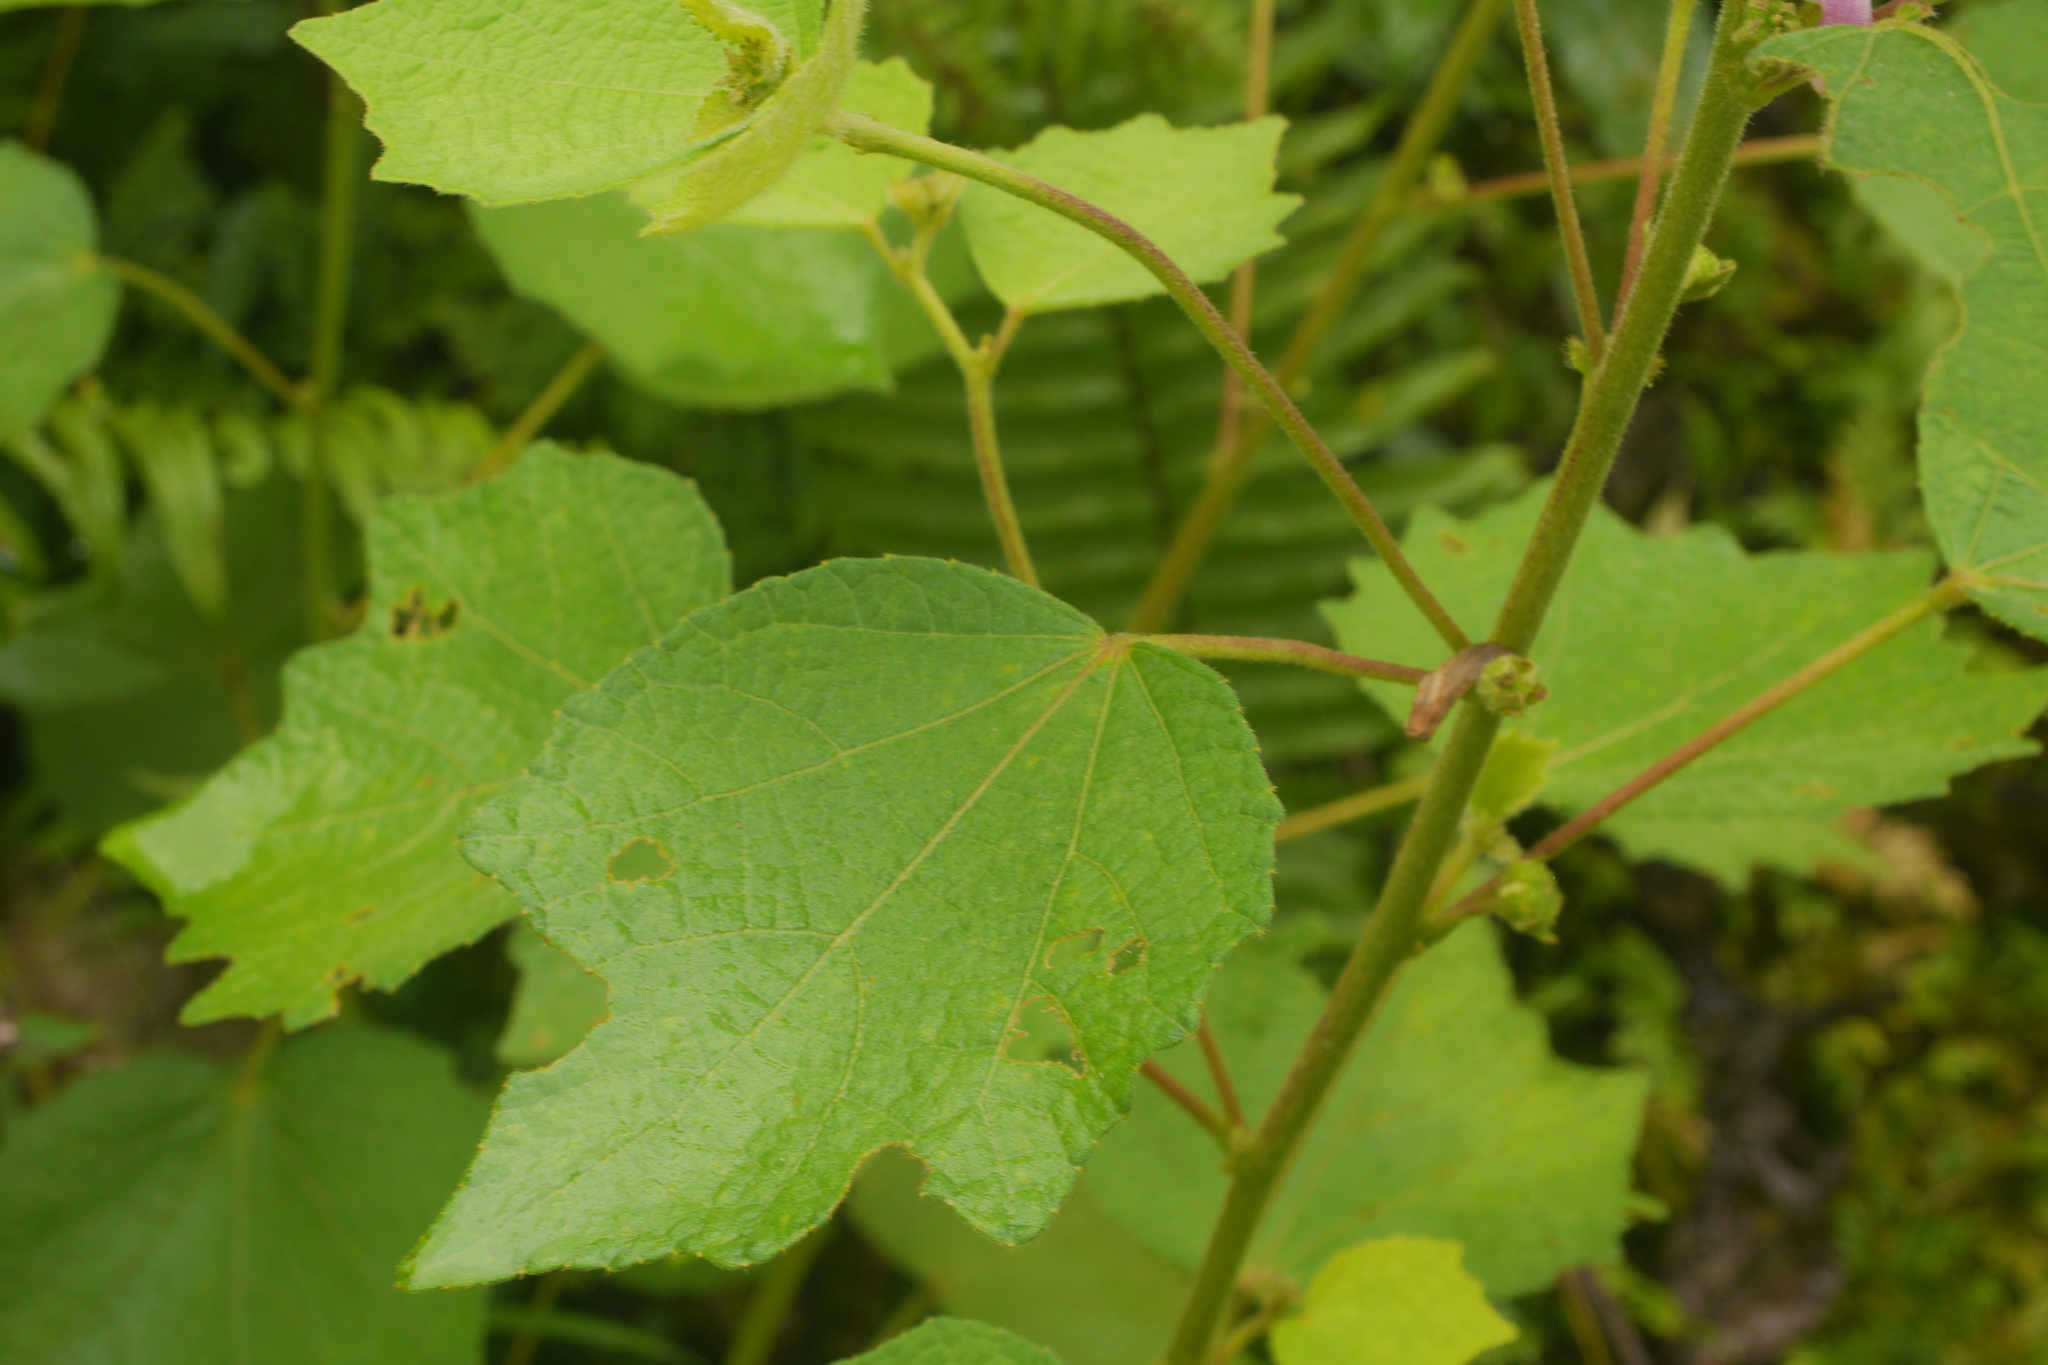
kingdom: Plantae
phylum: Tracheophyta
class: Magnoliopsida
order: Malvales
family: Malvaceae
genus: Urena
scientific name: Urena lobata
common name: Caesarweed
